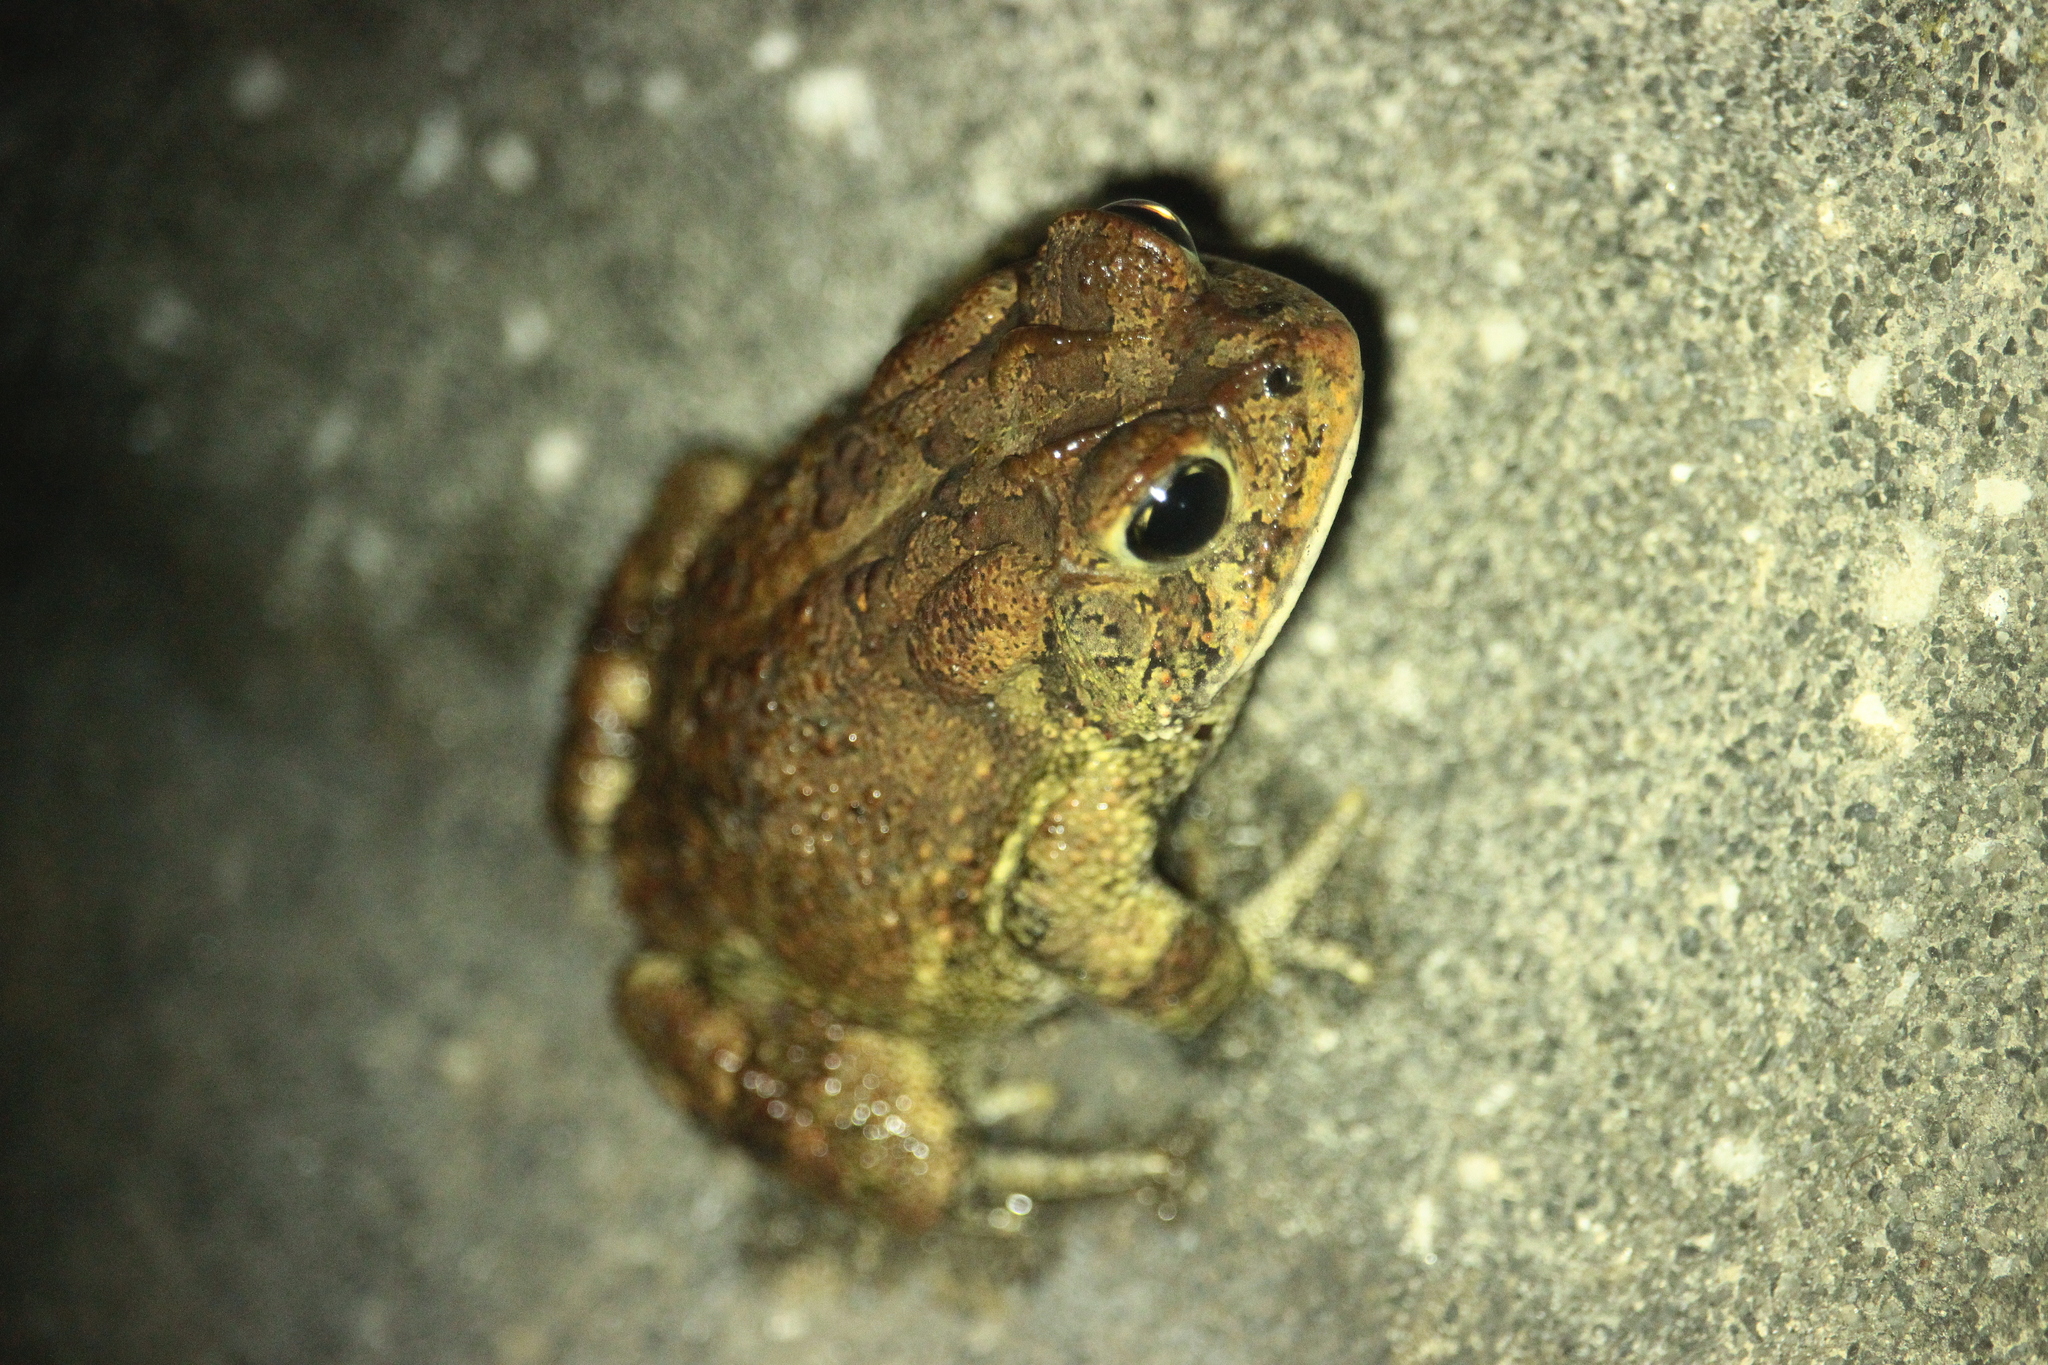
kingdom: Animalia
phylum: Chordata
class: Amphibia
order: Anura
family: Bufonidae
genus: Anaxyrus
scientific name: Anaxyrus terrestris
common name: Southern toad
